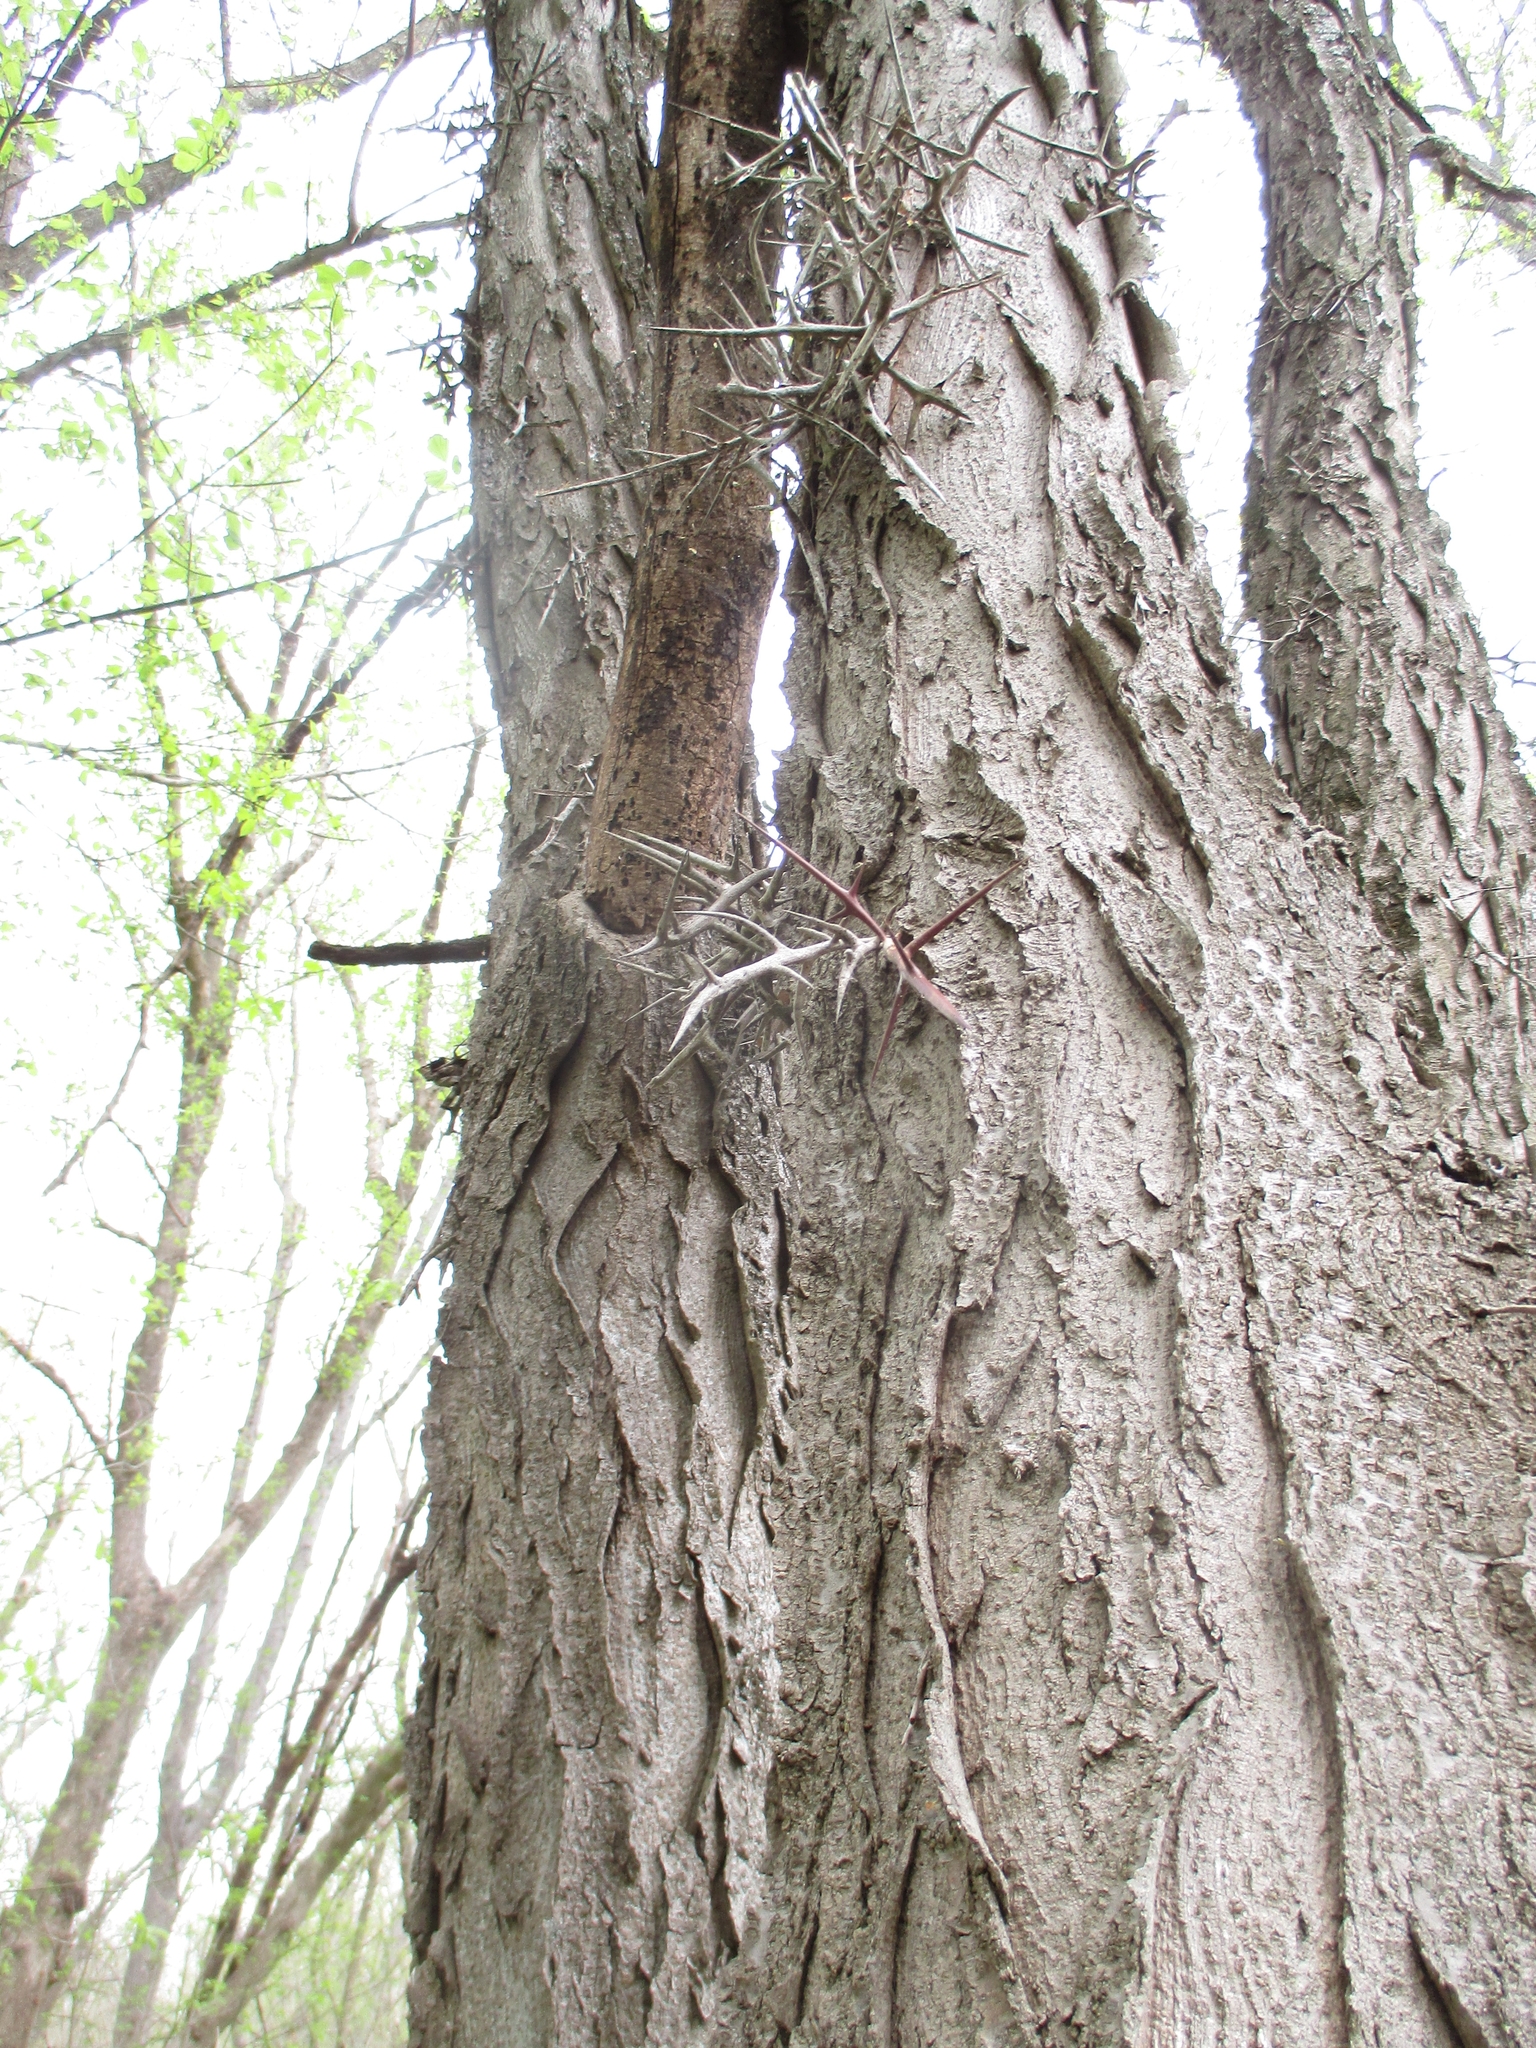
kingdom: Plantae
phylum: Tracheophyta
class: Magnoliopsida
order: Fabales
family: Fabaceae
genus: Gleditsia
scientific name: Gleditsia triacanthos
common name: Common honeylocust
